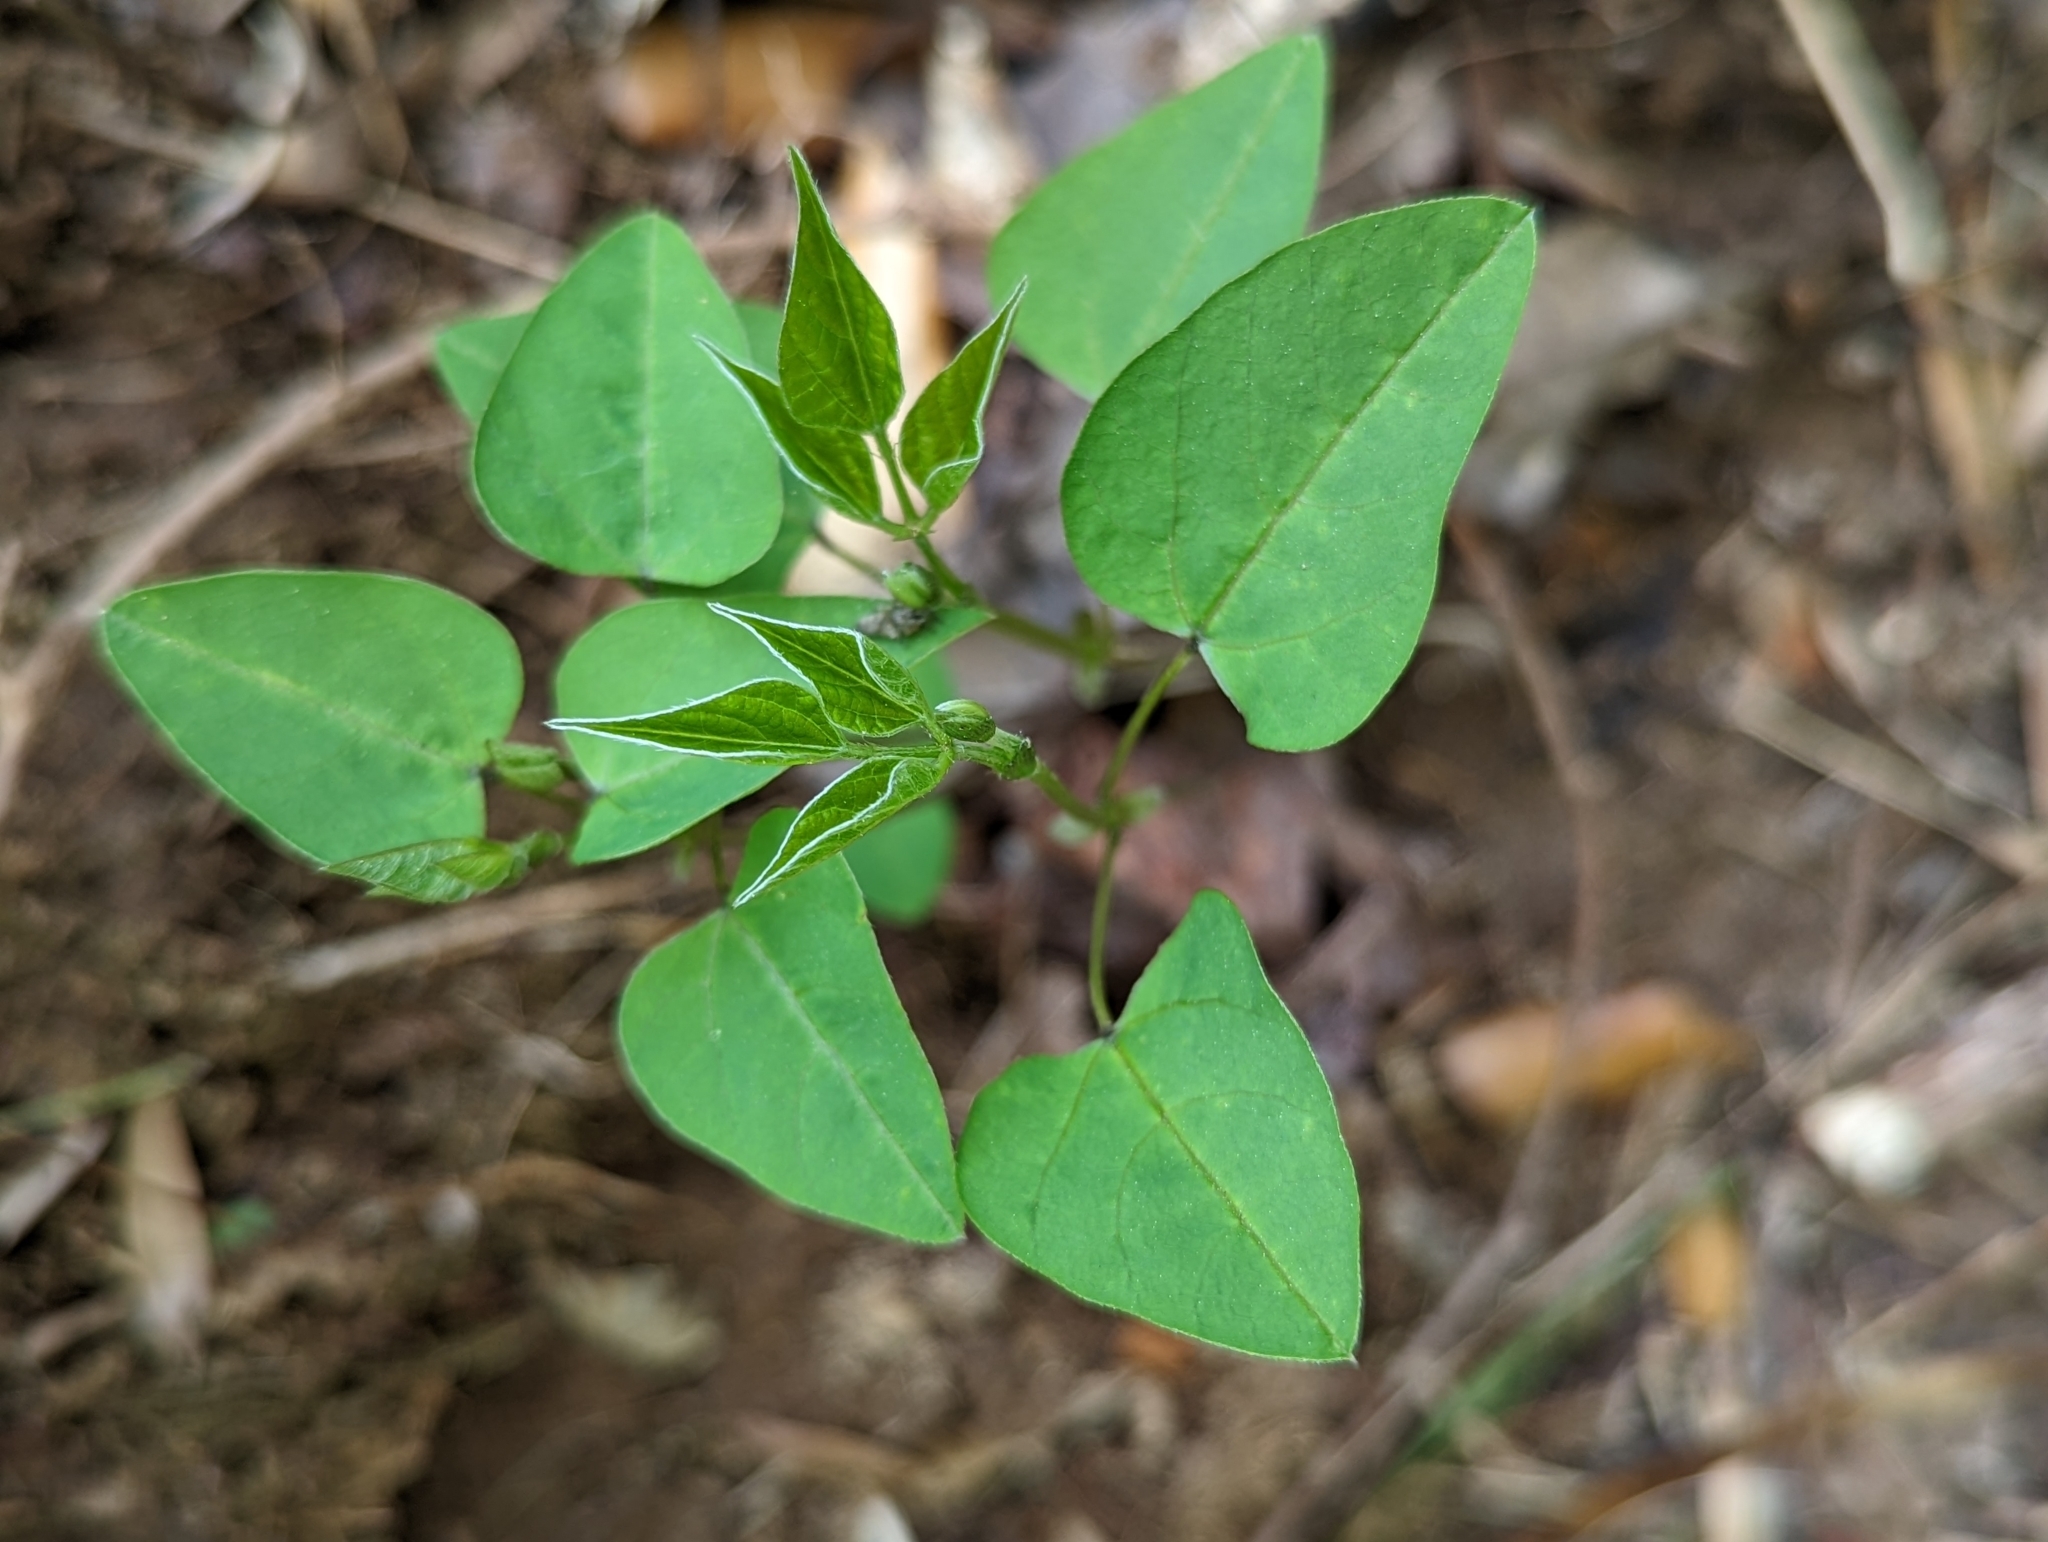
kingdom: Plantae
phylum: Tracheophyta
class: Magnoliopsida
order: Fabales
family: Fabaceae
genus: Amphicarpaea
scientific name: Amphicarpaea bracteata
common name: American hog peanut
